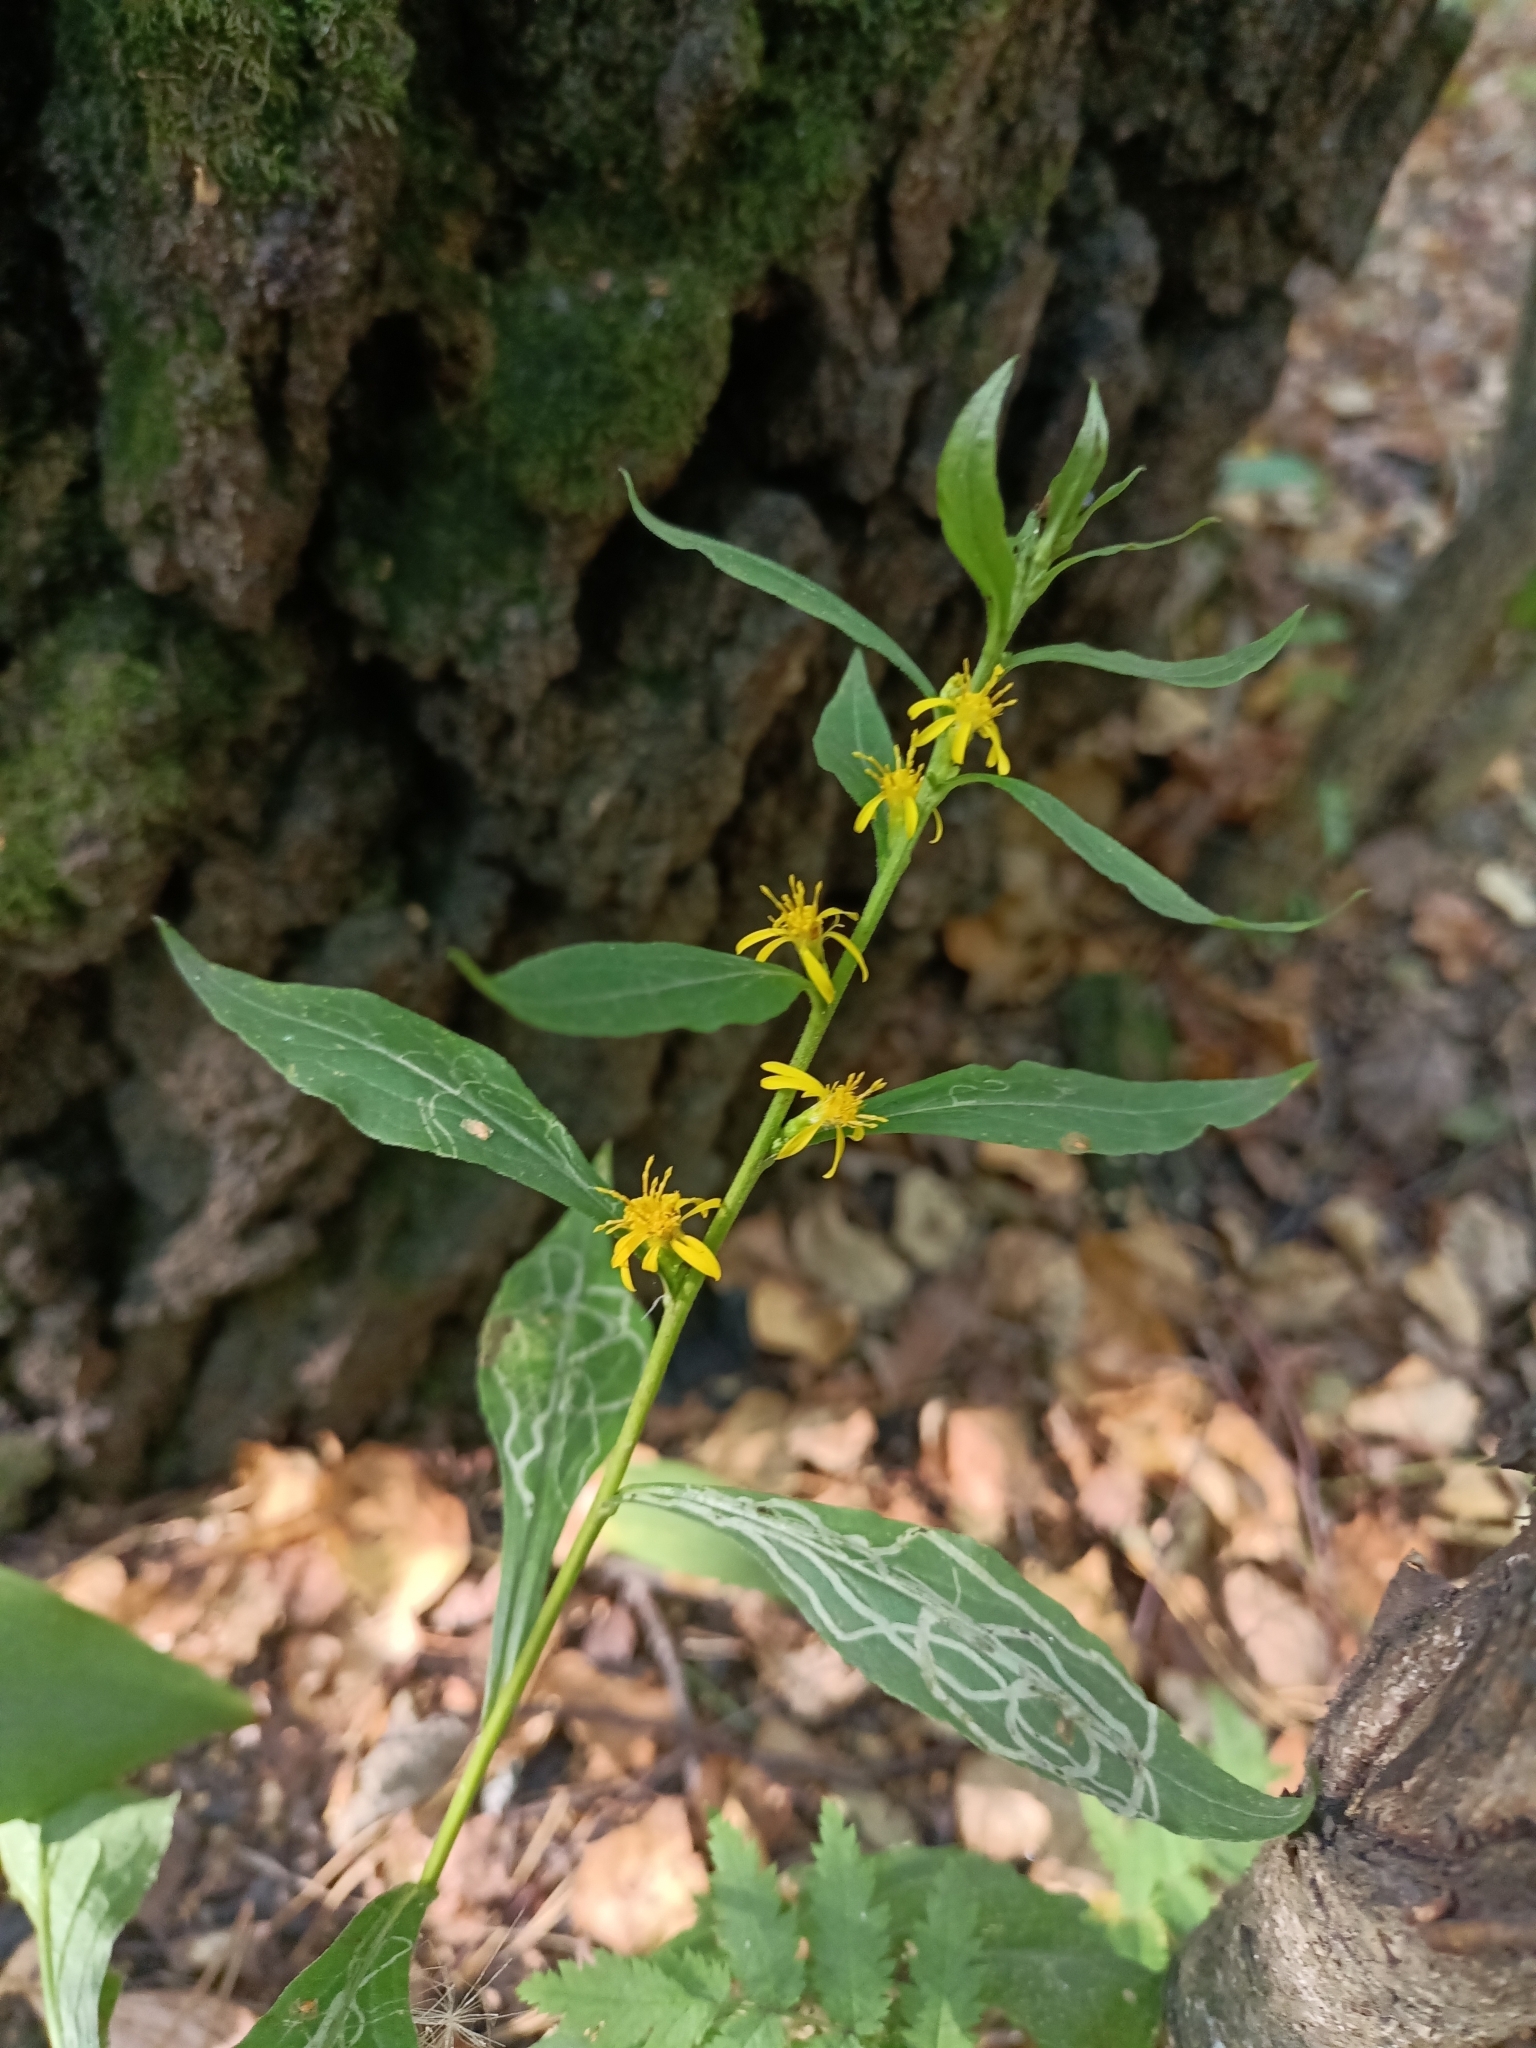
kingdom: Plantae
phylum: Tracheophyta
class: Magnoliopsida
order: Asterales
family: Asteraceae
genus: Solidago
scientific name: Solidago virgaurea
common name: Goldenrod
